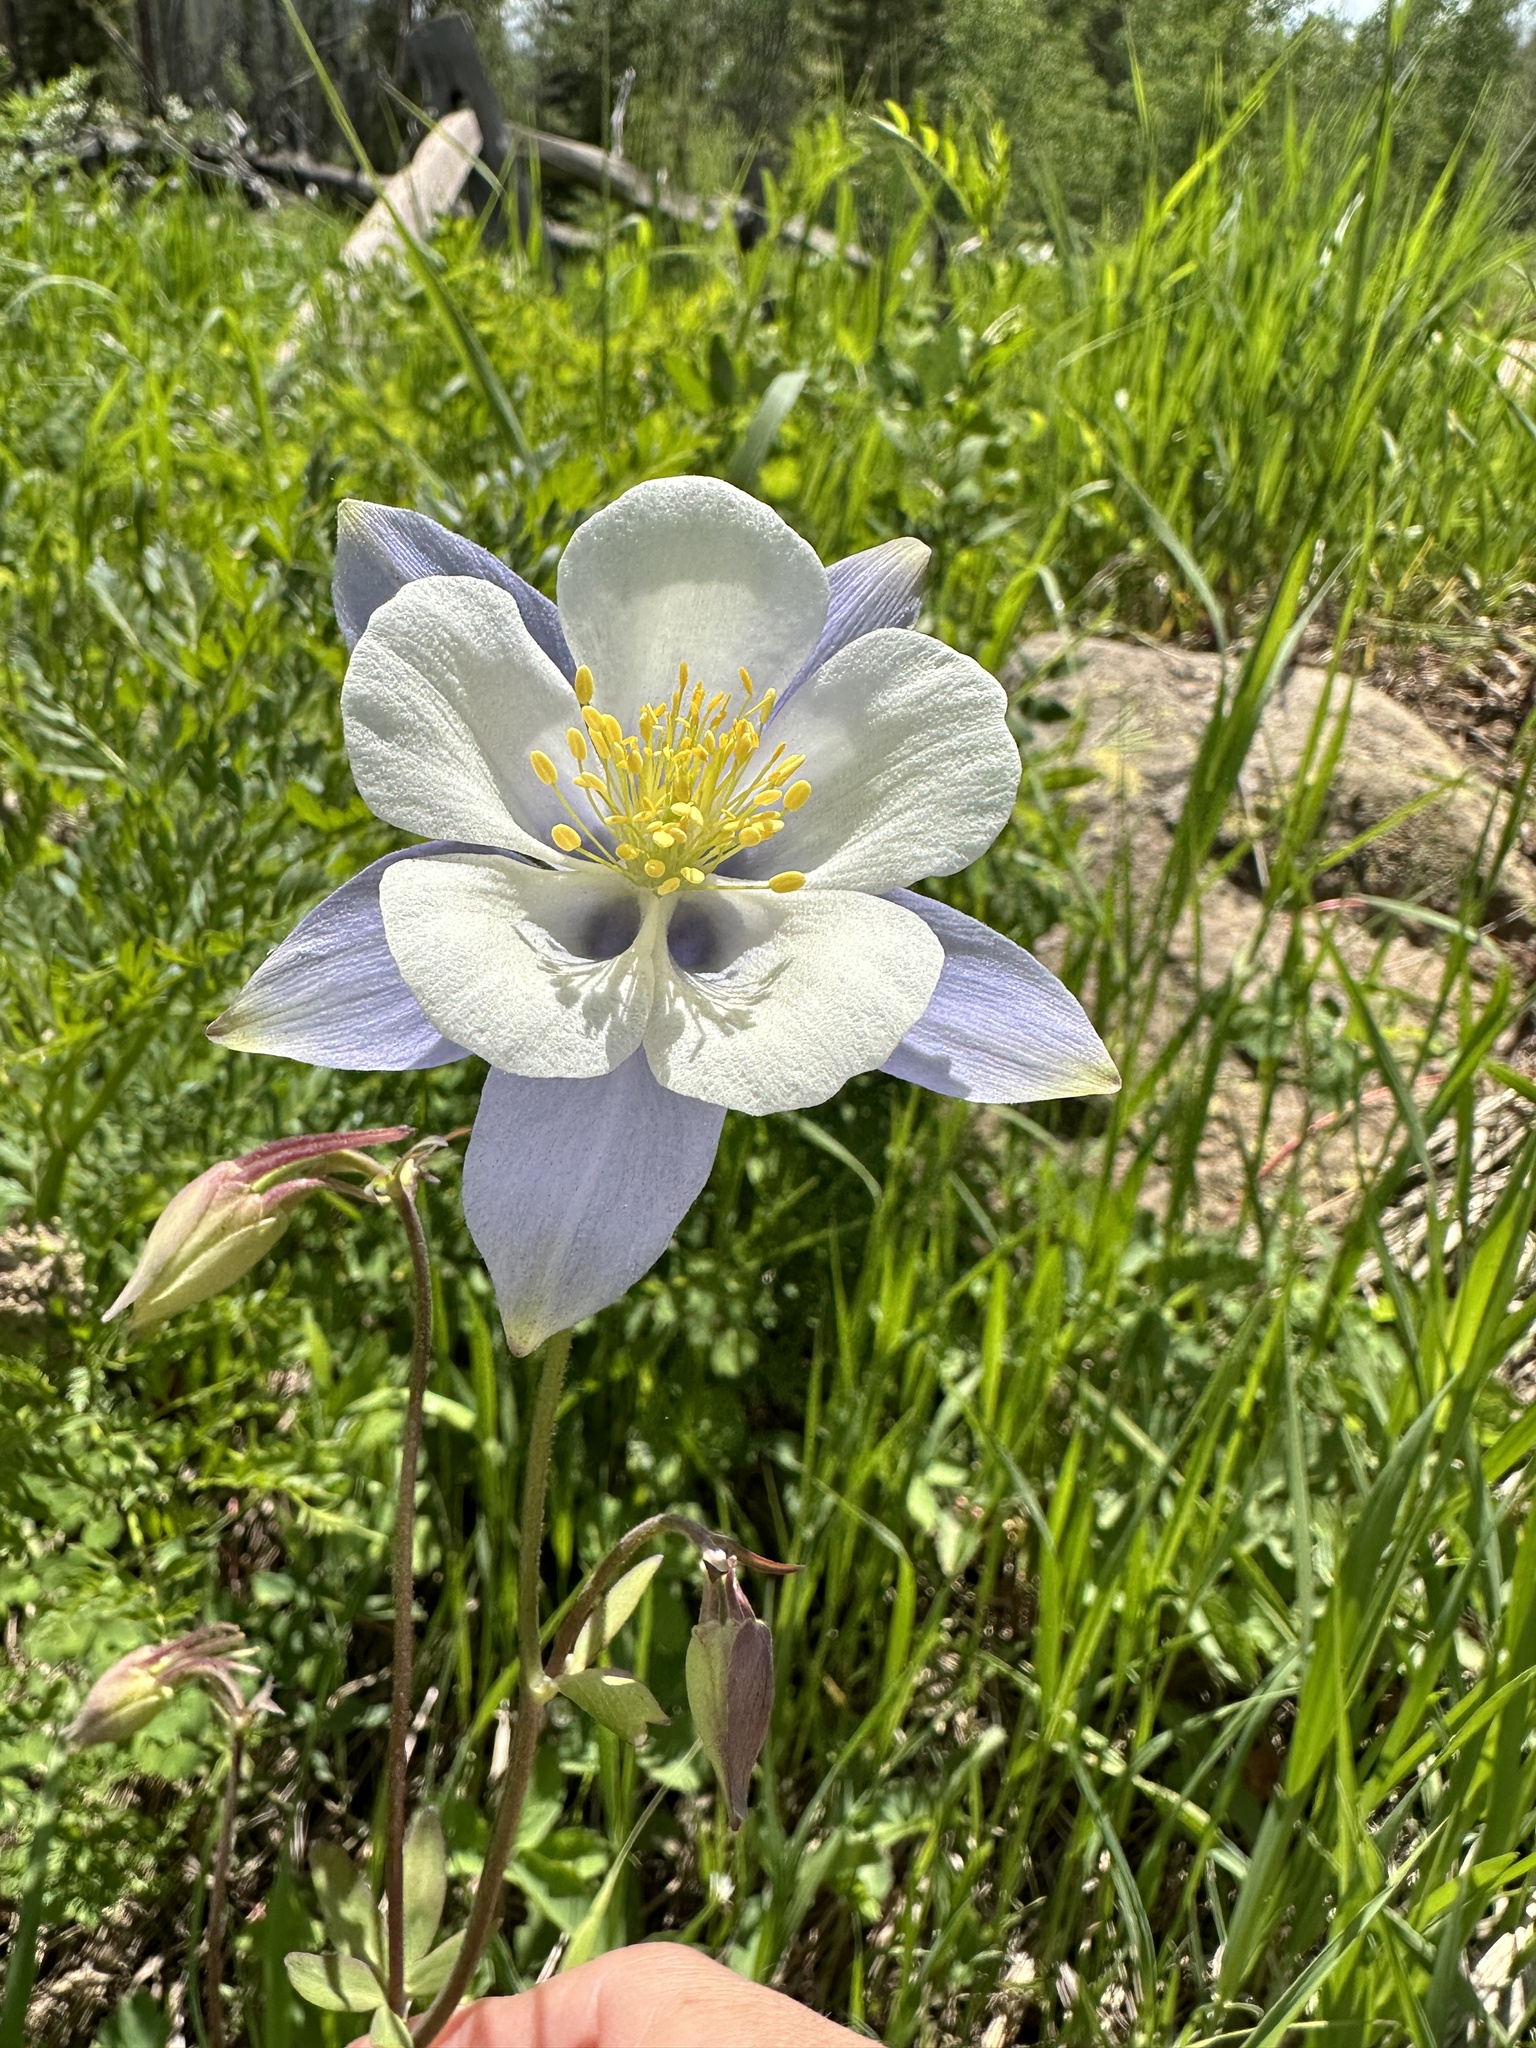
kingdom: Plantae
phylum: Tracheophyta
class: Magnoliopsida
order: Ranunculales
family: Ranunculaceae
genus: Aquilegia
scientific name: Aquilegia coerulea
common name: Rocky mountain columbine
